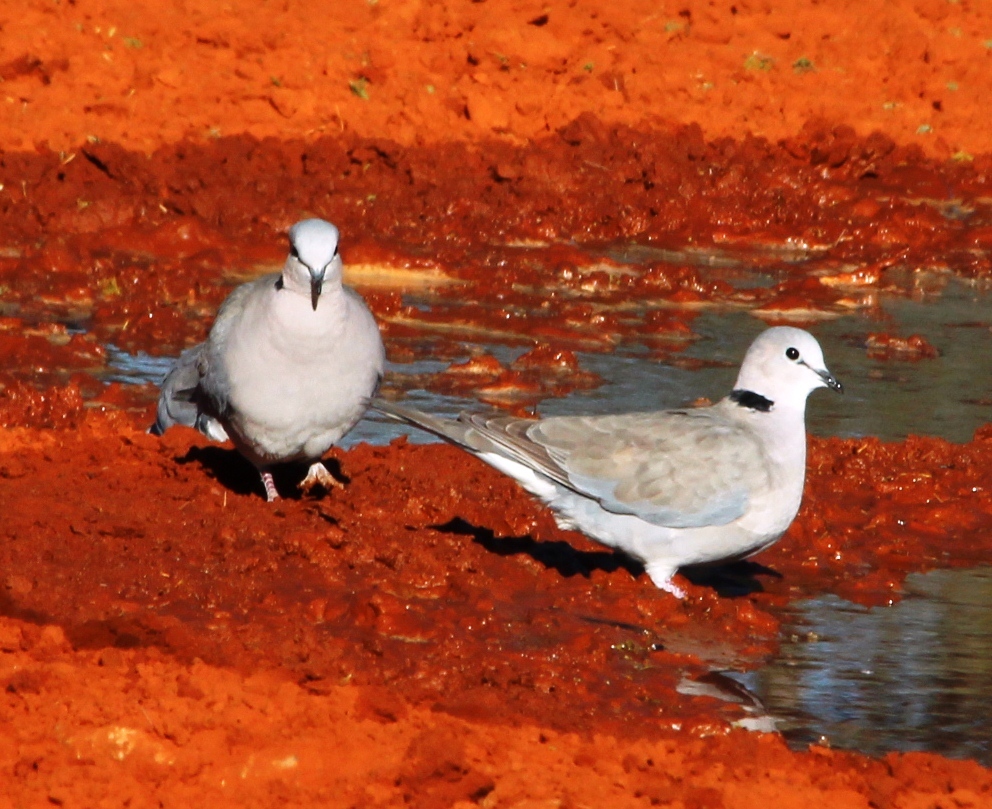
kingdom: Animalia
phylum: Chordata
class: Aves
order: Columbiformes
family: Columbidae
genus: Streptopelia
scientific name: Streptopelia capicola
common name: Ring-necked dove
